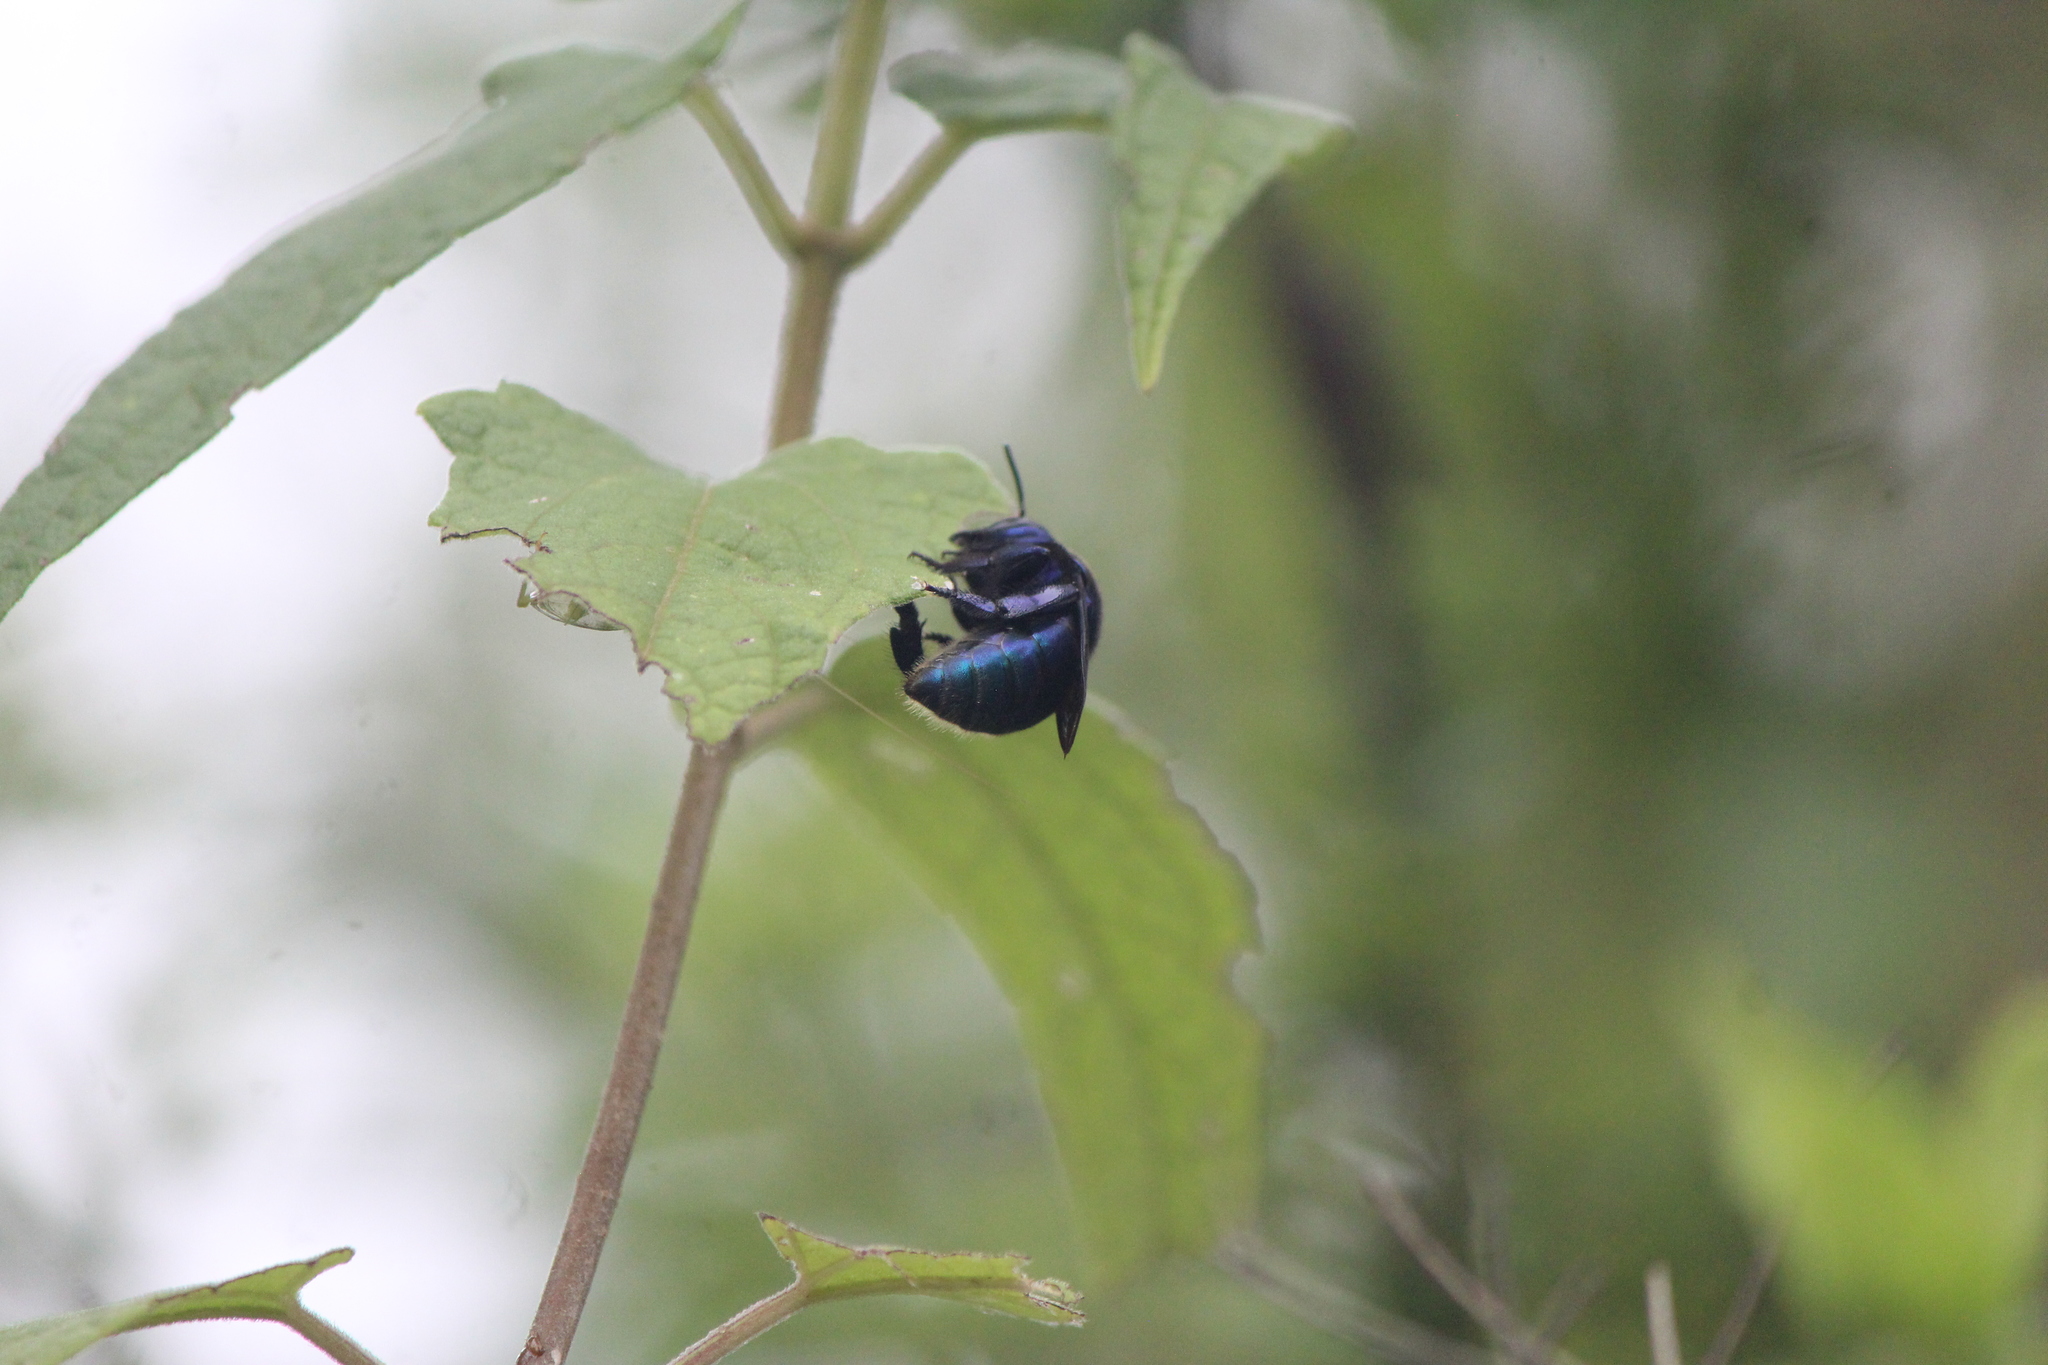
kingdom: Animalia
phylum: Arthropoda
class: Insecta
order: Hymenoptera
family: Apidae
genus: Eufriesea
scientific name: Eufriesea caerulescens
